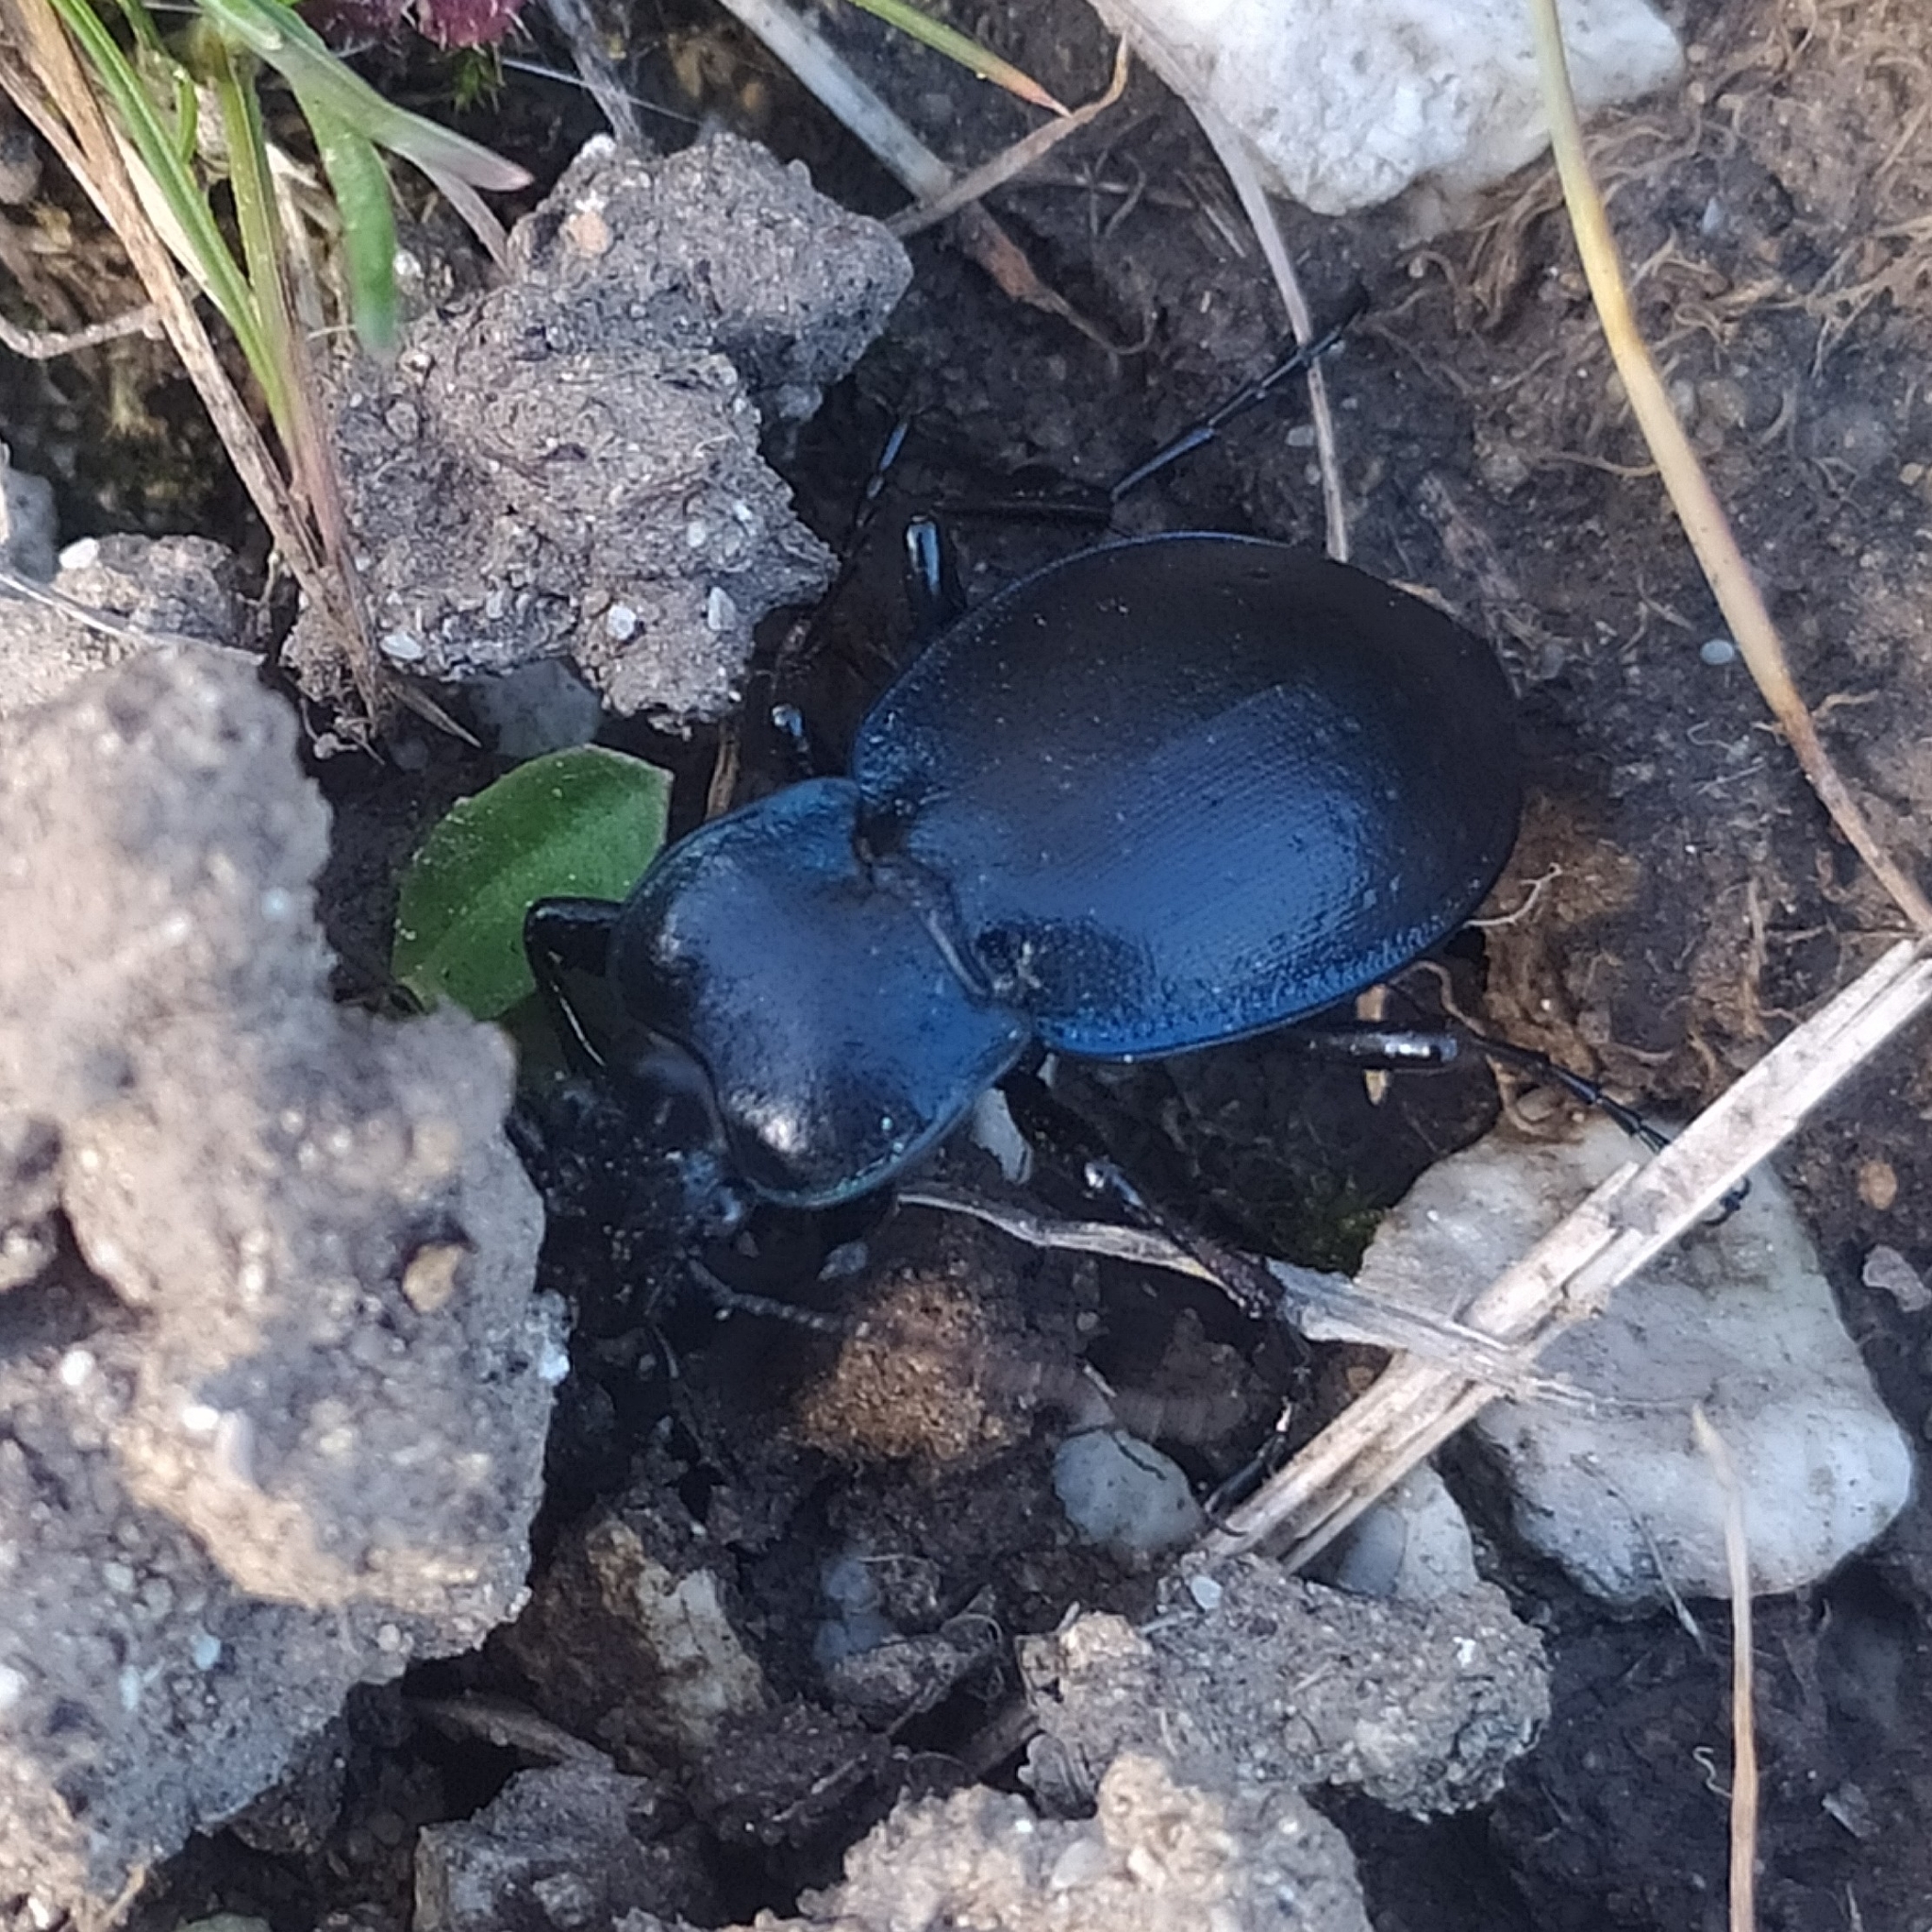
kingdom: Animalia
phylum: Arthropoda
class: Insecta
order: Coleoptera
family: Carabidae
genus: Carabus
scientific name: Carabus convexus
